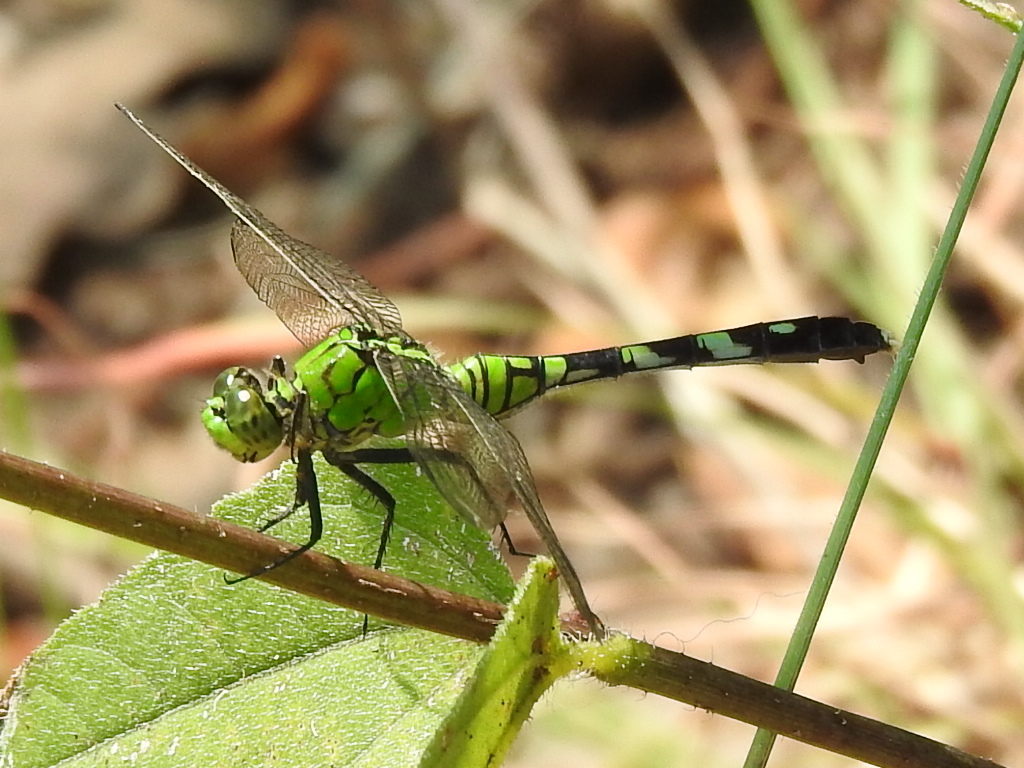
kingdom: Animalia
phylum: Arthropoda
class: Insecta
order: Odonata
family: Libellulidae
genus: Erythemis
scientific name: Erythemis simplicicollis
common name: Eastern pondhawk
